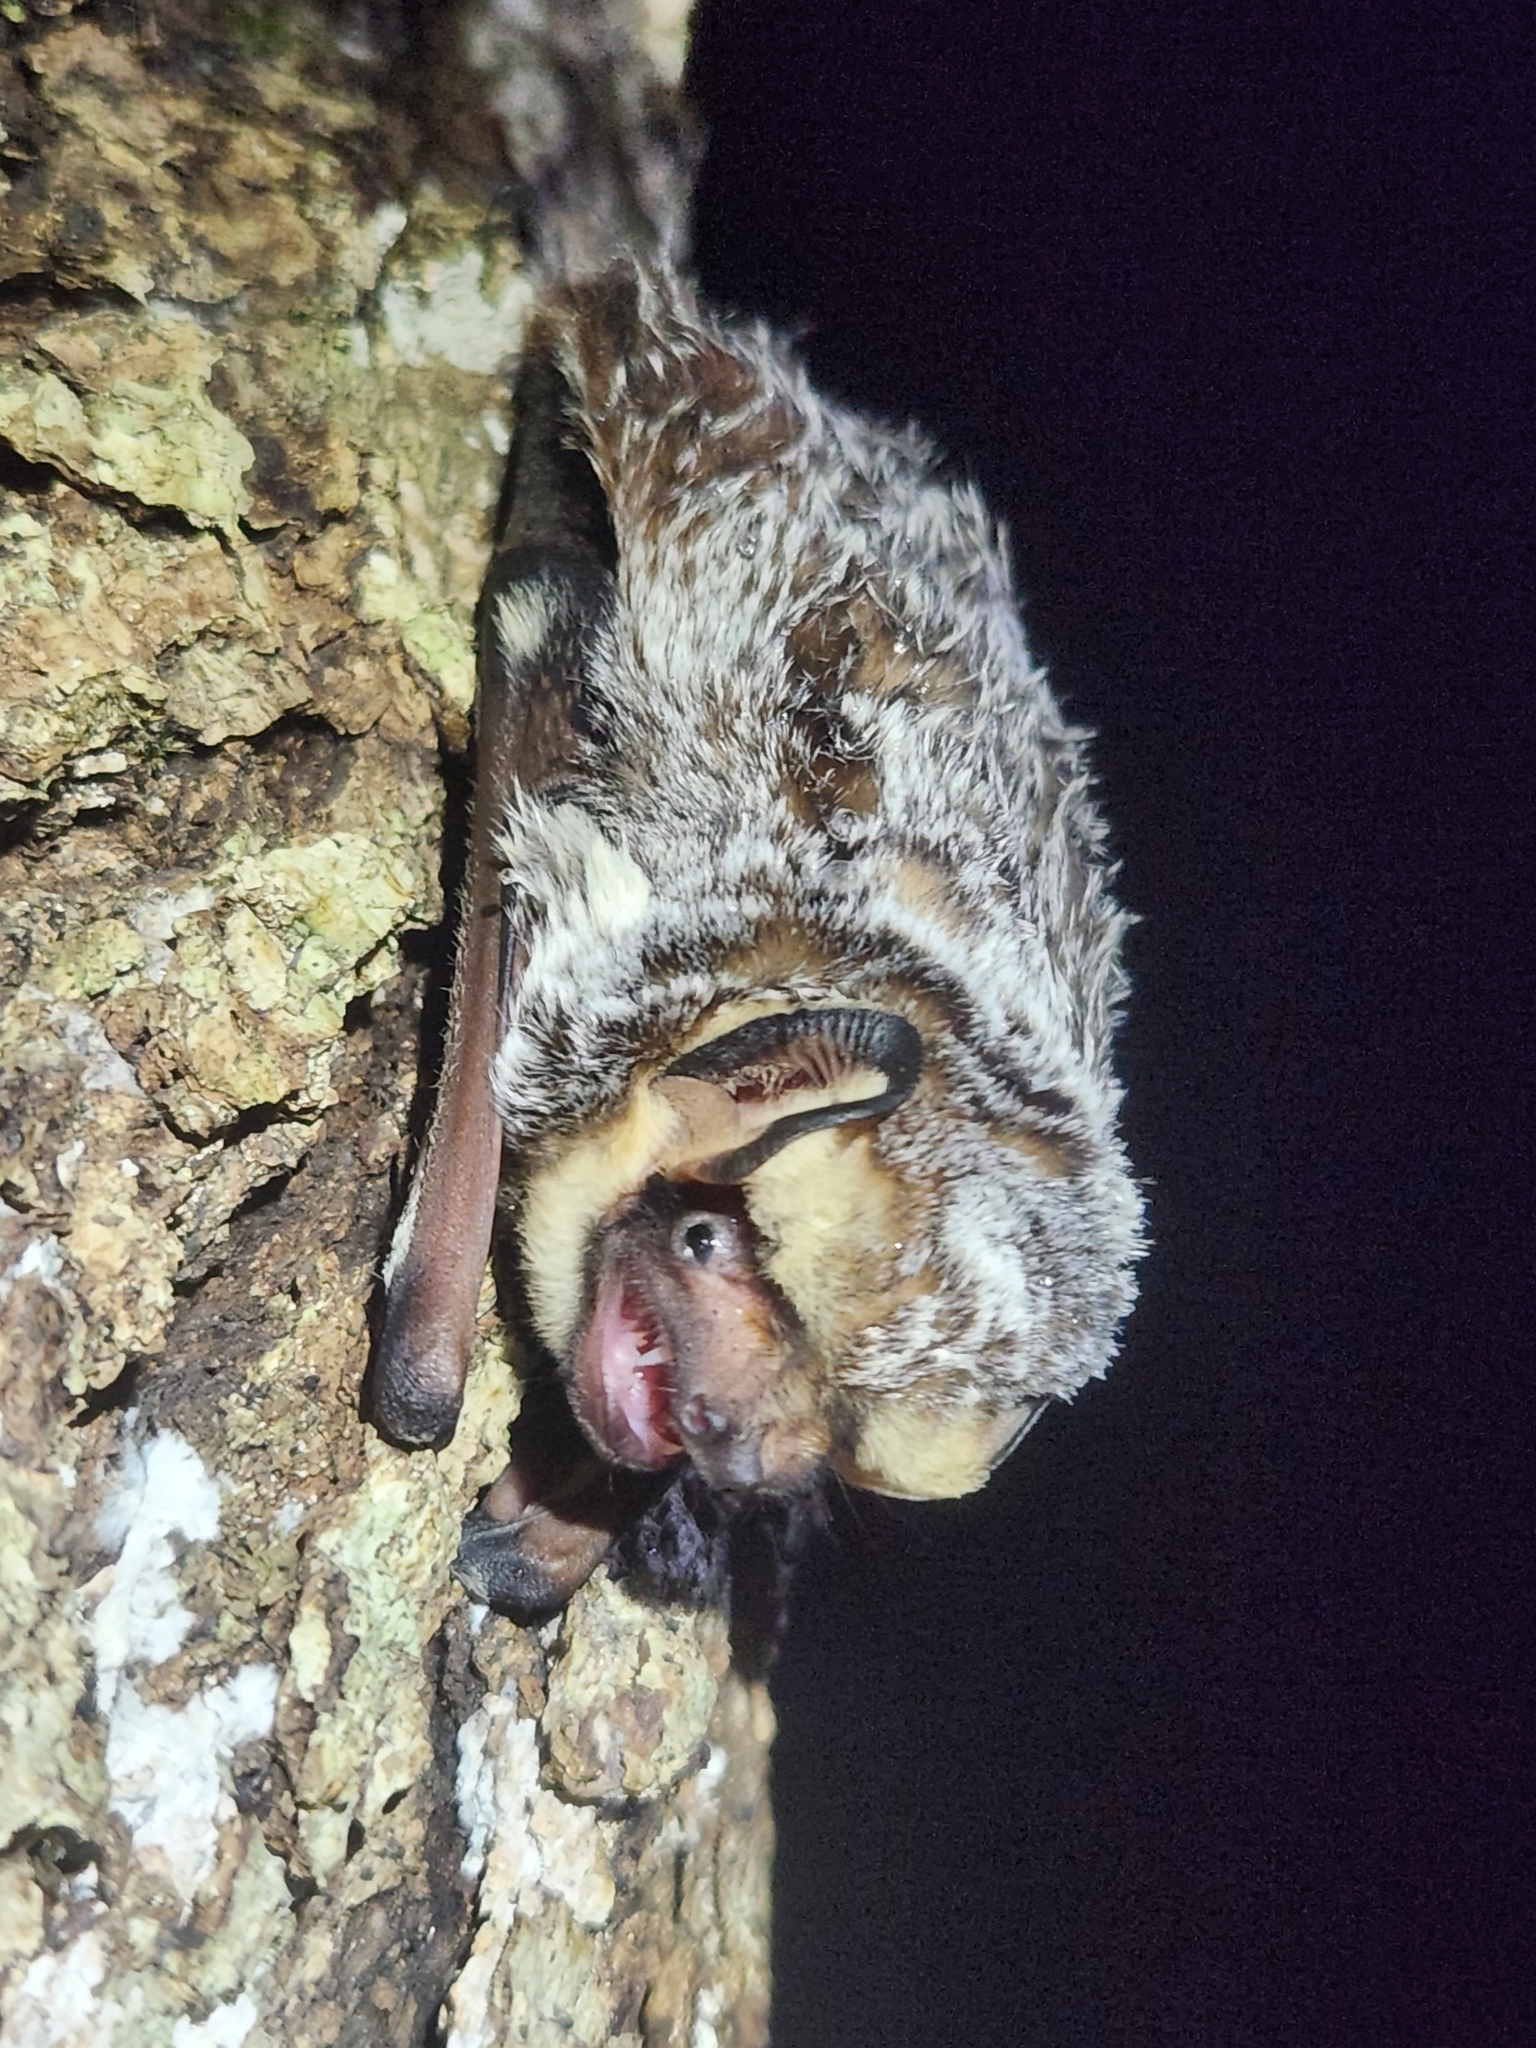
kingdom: Animalia
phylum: Chordata
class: Mammalia
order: Chiroptera
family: Vespertilionidae
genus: Aeorestes
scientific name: Aeorestes cinereus
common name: North american hoary bat
